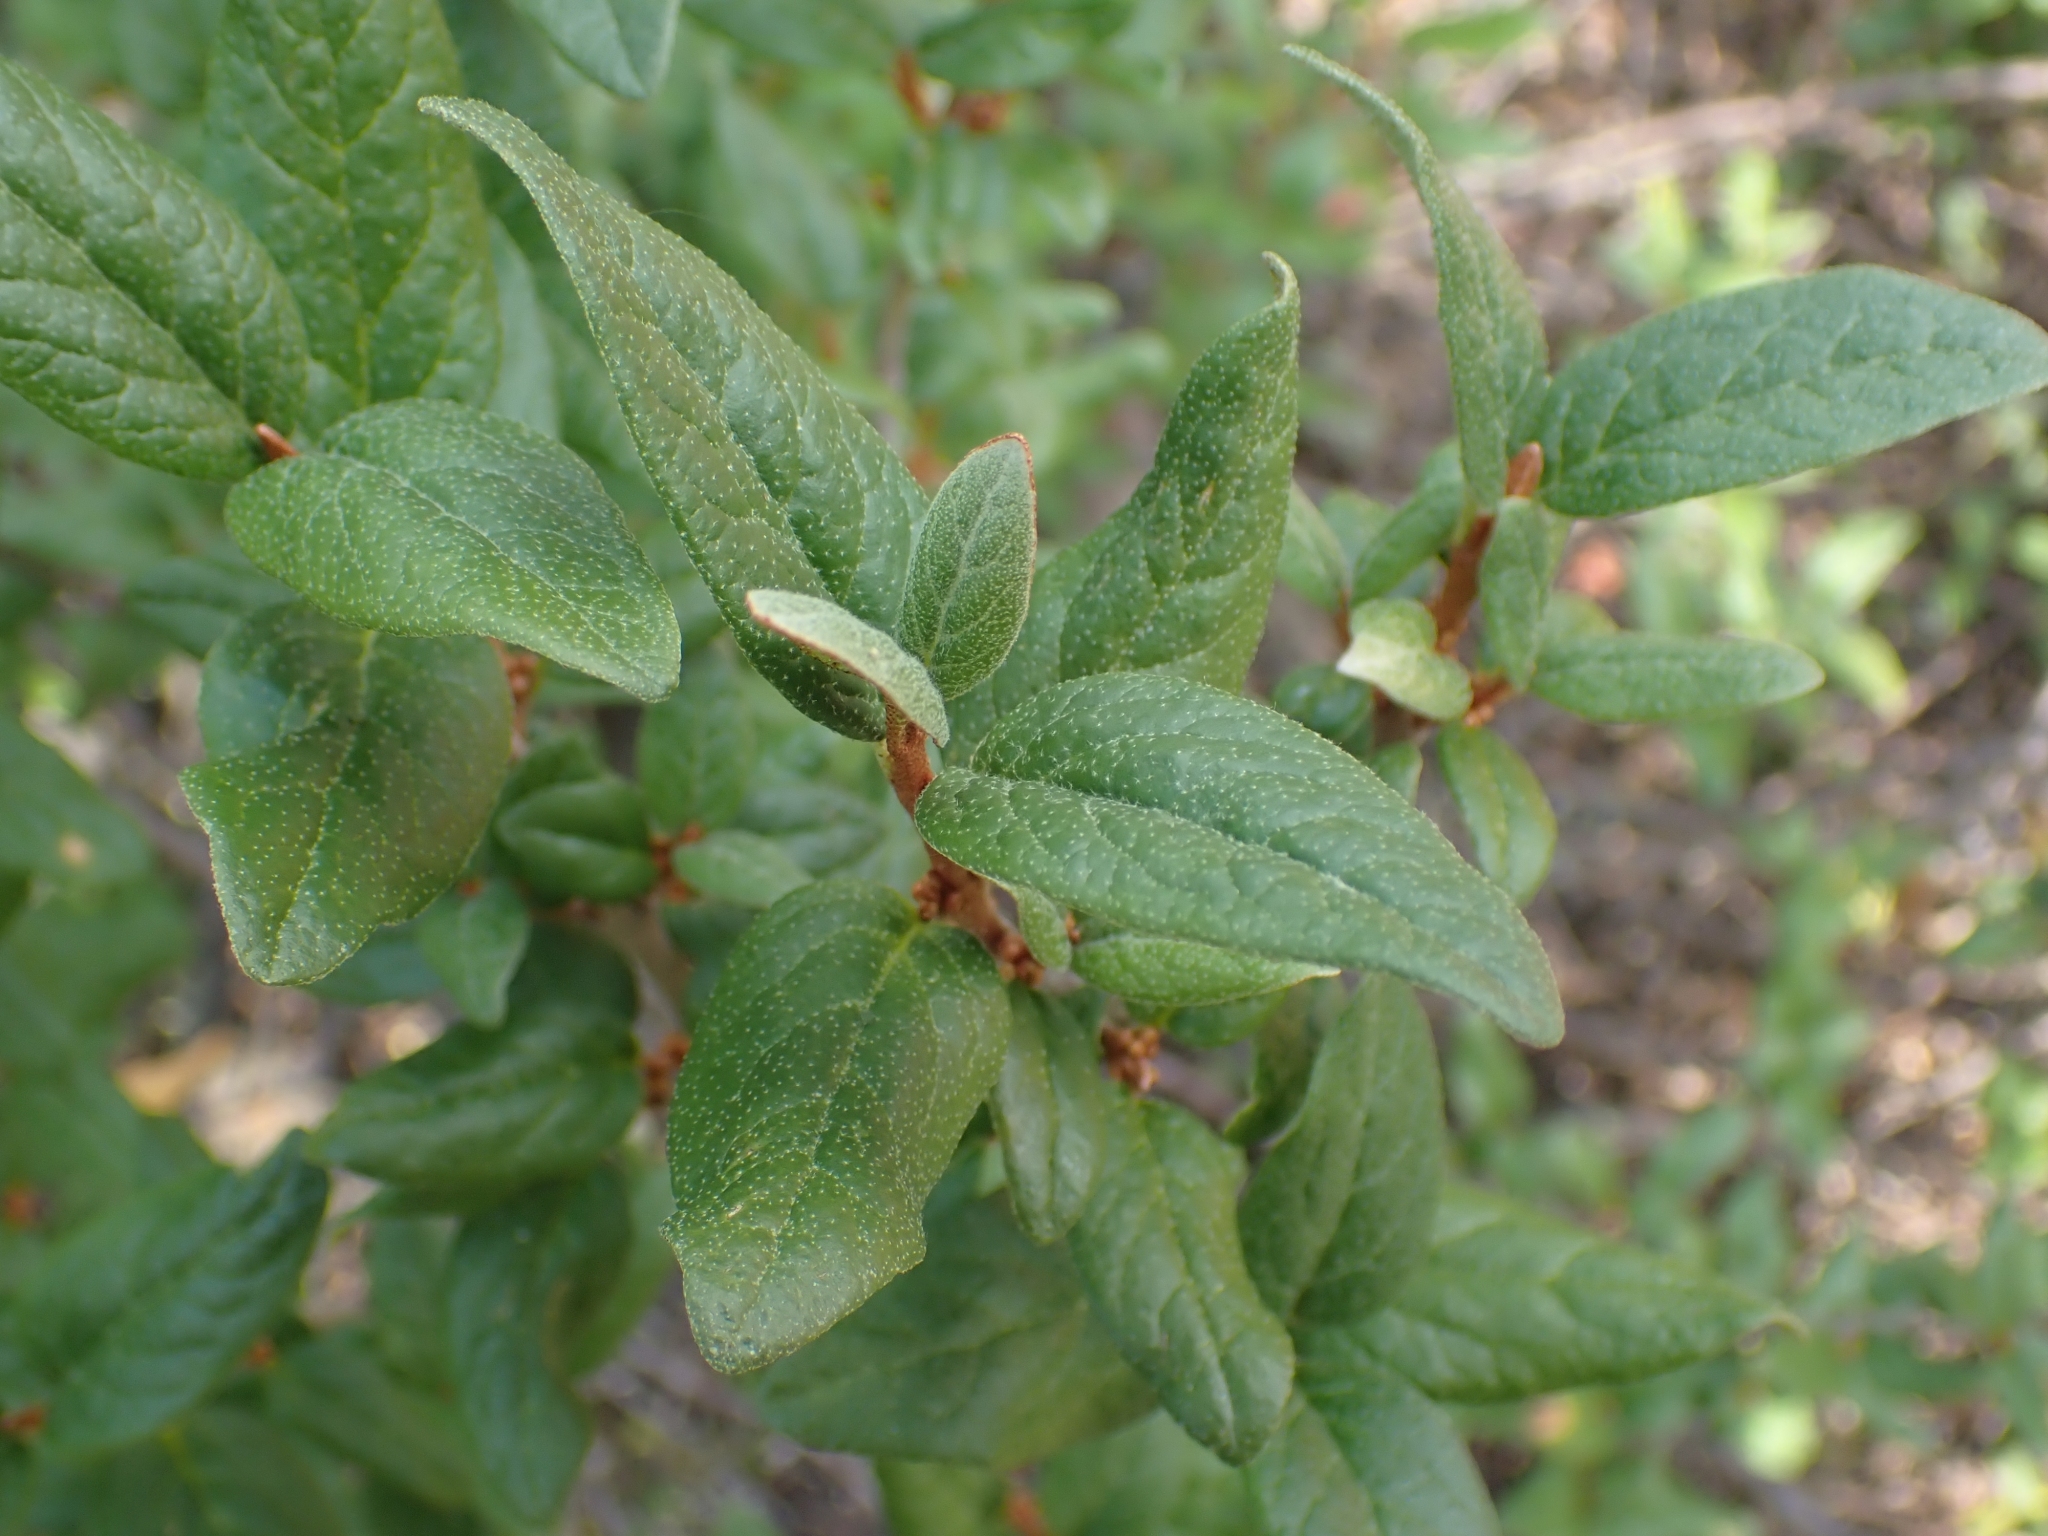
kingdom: Plantae
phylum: Tracheophyta
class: Magnoliopsida
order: Rosales
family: Elaeagnaceae
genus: Shepherdia
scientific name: Shepherdia canadensis
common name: Soapberry
